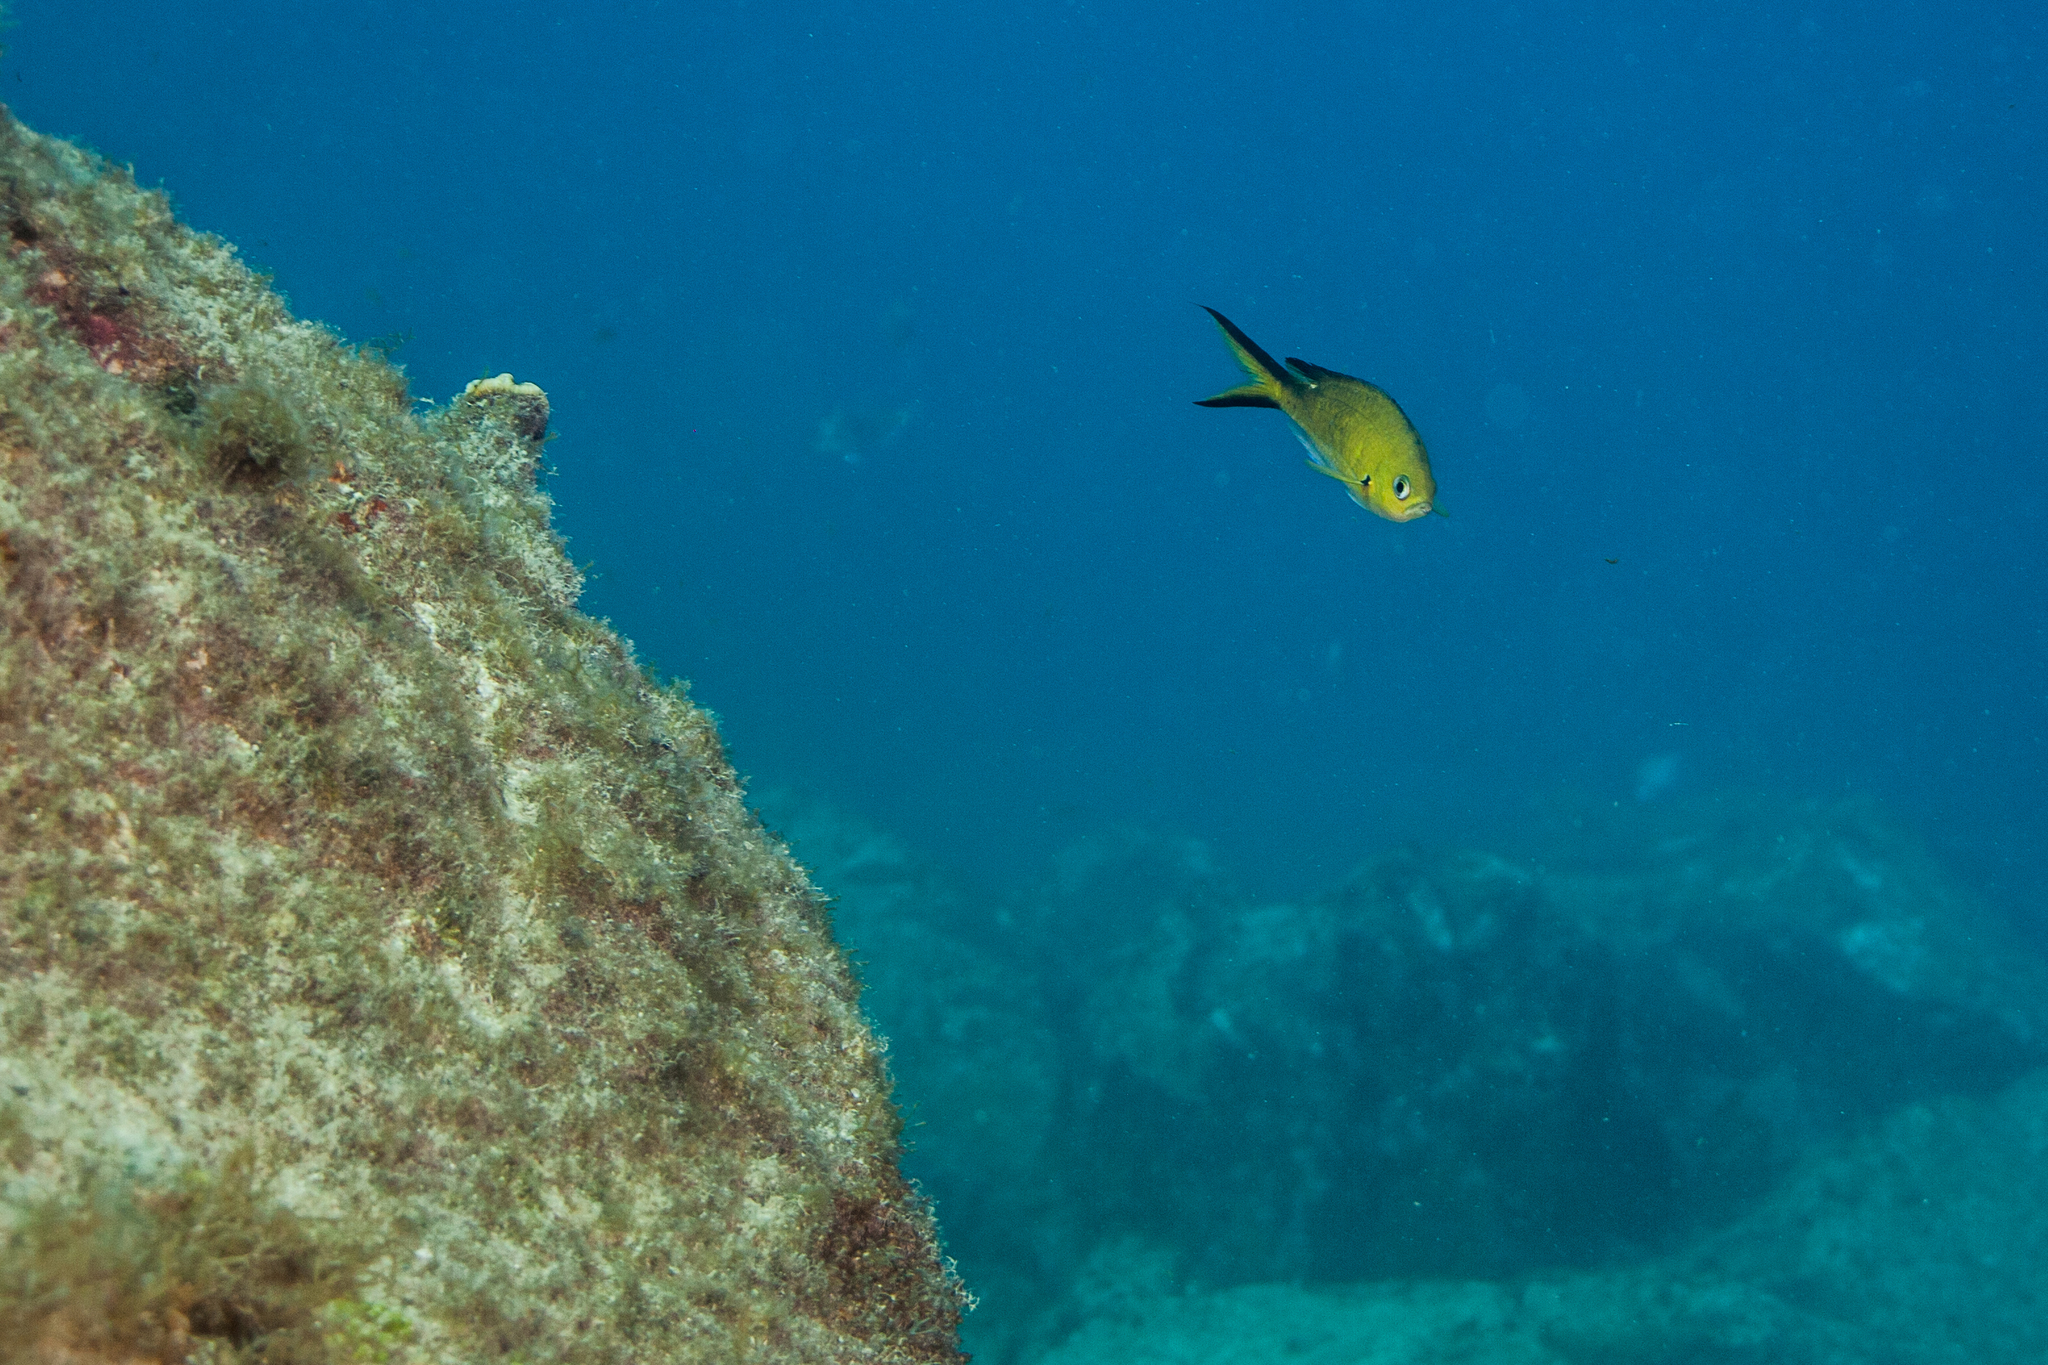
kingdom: Animalia
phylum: Chordata
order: Perciformes
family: Pomacentridae
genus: Chromis
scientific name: Chromis multilineata
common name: Brown chromis
